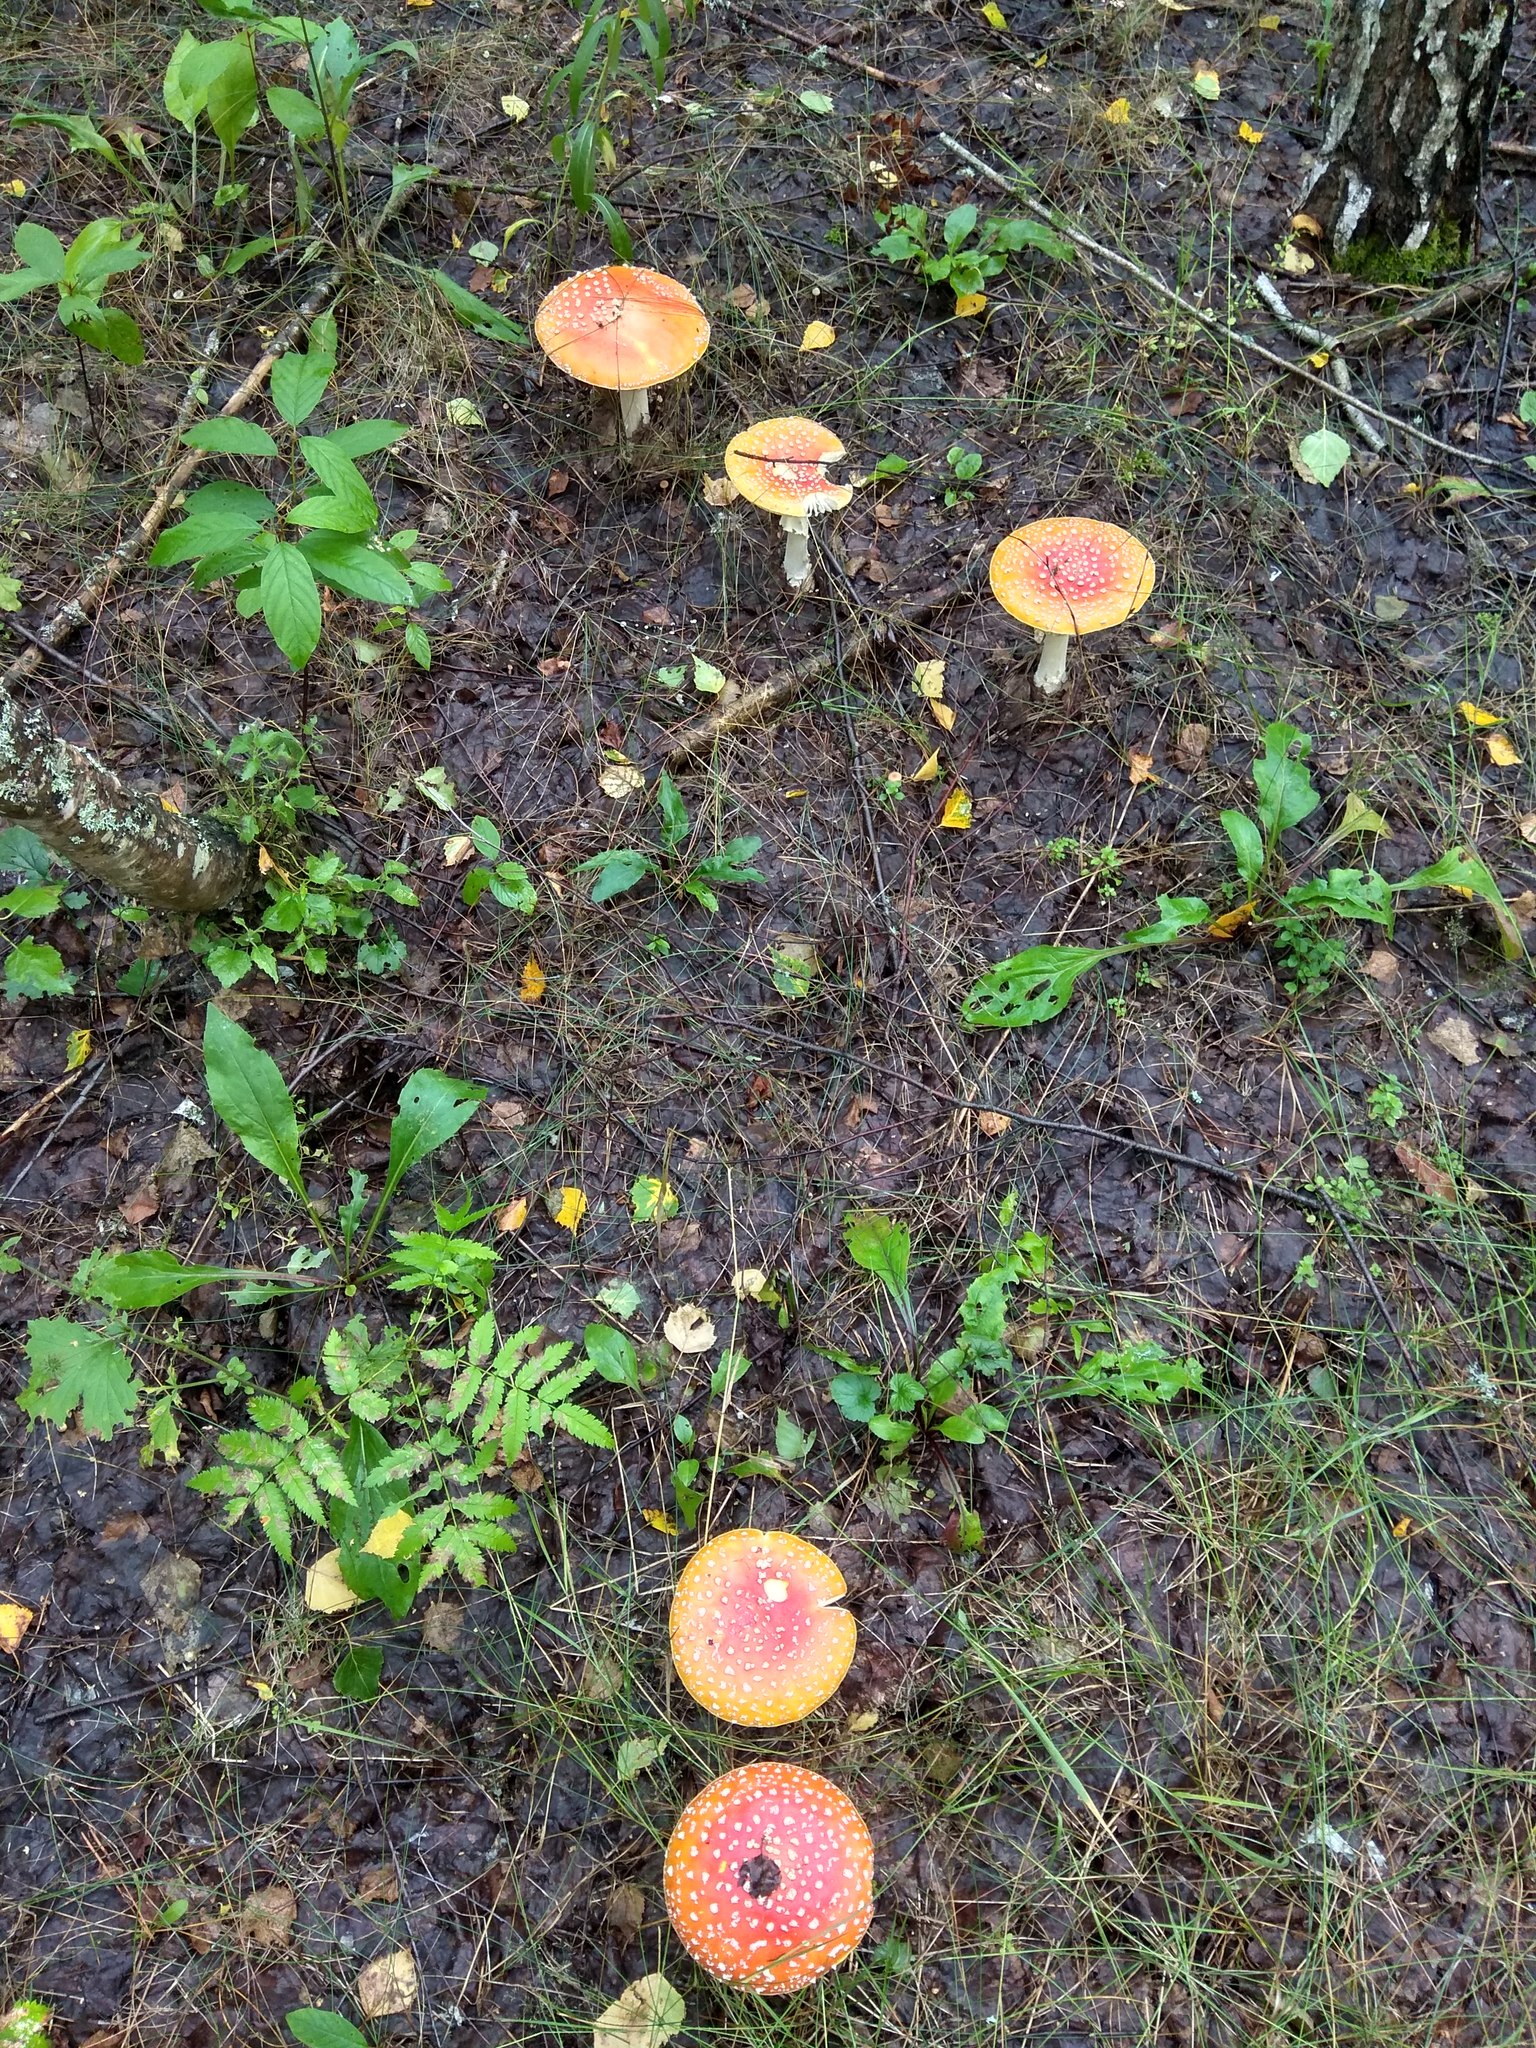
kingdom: Fungi
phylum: Basidiomycota
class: Agaricomycetes
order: Agaricales
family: Amanitaceae
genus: Amanita
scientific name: Amanita muscaria
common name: Fly agaric
